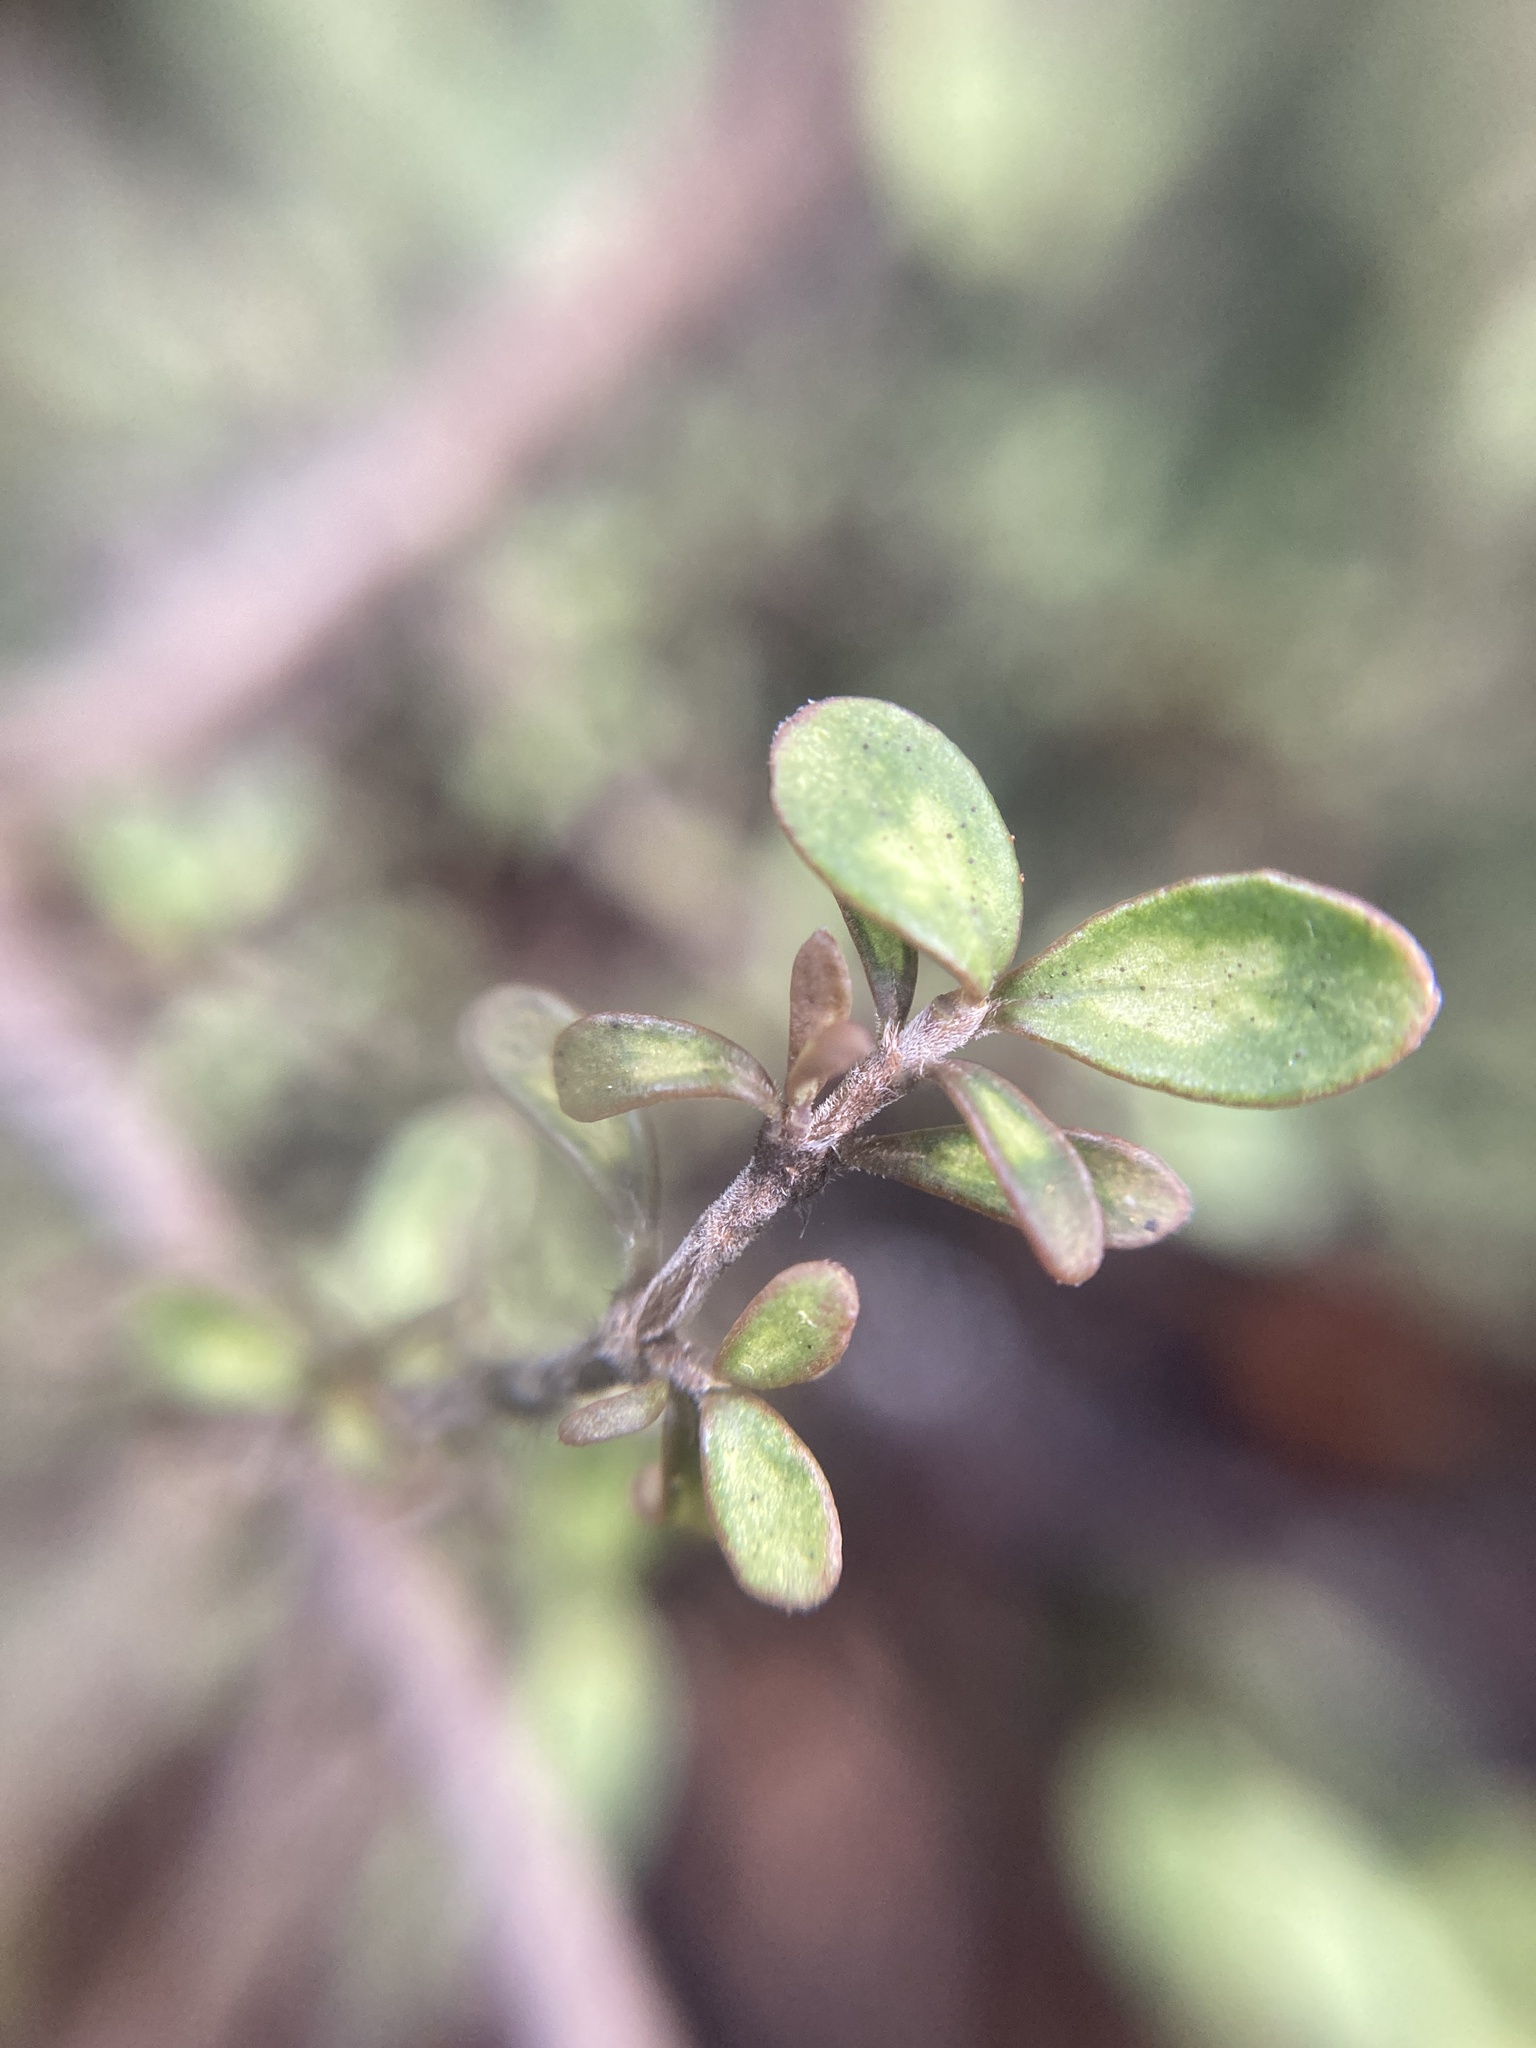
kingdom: Plantae
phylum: Tracheophyta
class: Magnoliopsida
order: Gentianales
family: Rubiaceae
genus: Coprosma
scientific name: Coprosma dumosa
